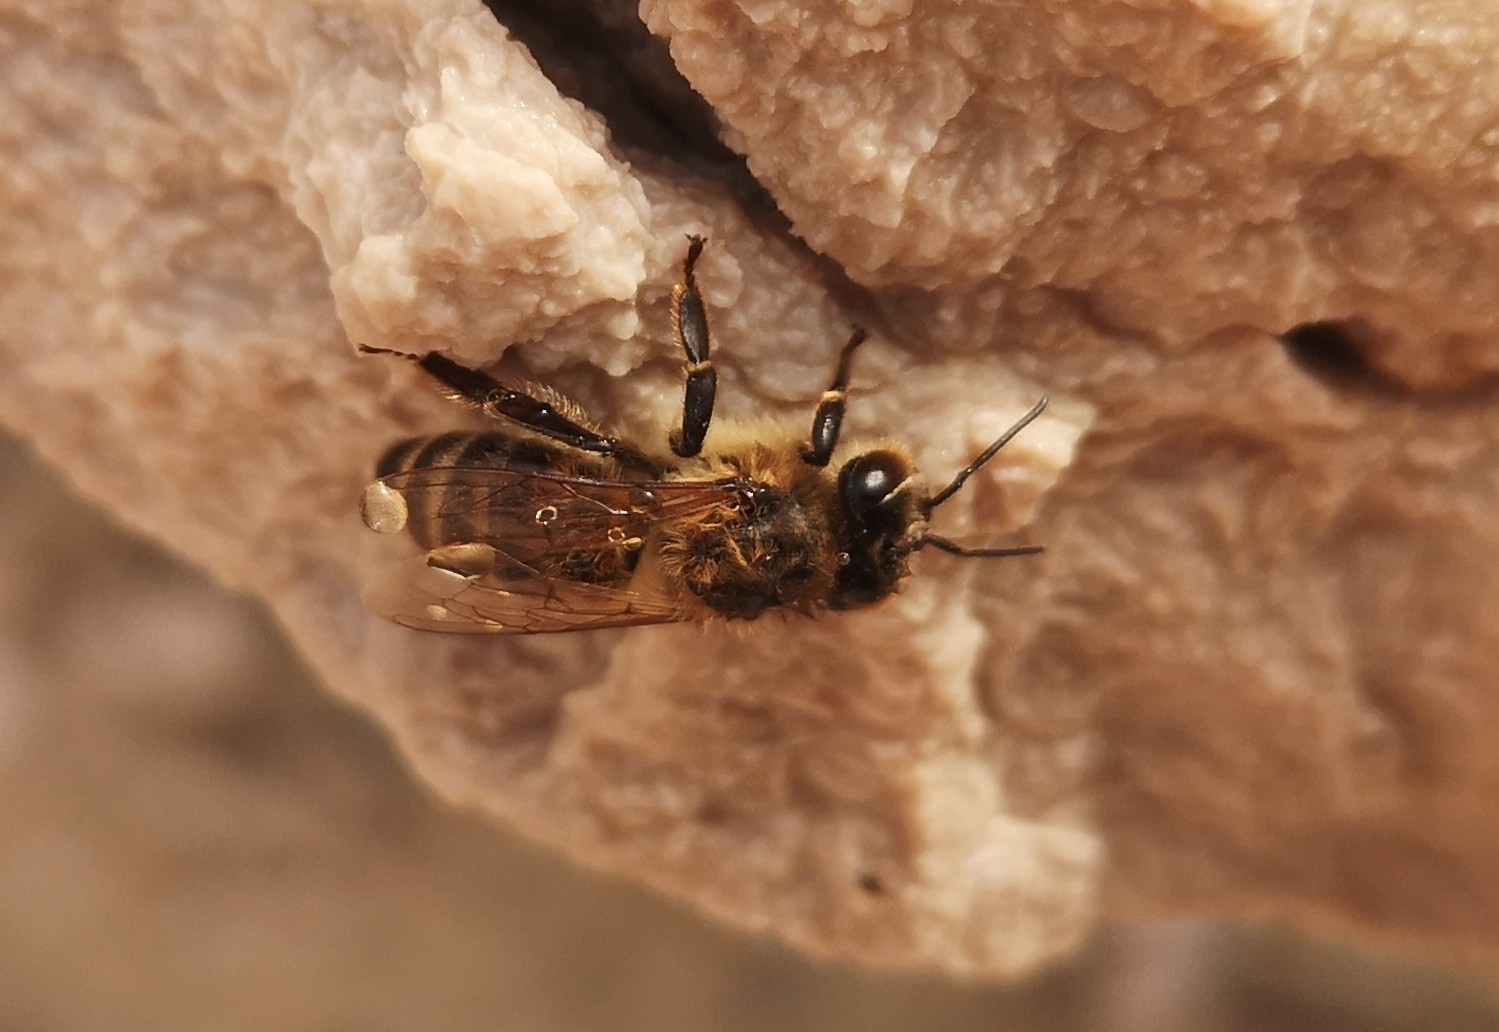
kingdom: Animalia
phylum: Arthropoda
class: Insecta
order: Hymenoptera
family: Apidae
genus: Apis
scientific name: Apis mellifera
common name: Honey bee
